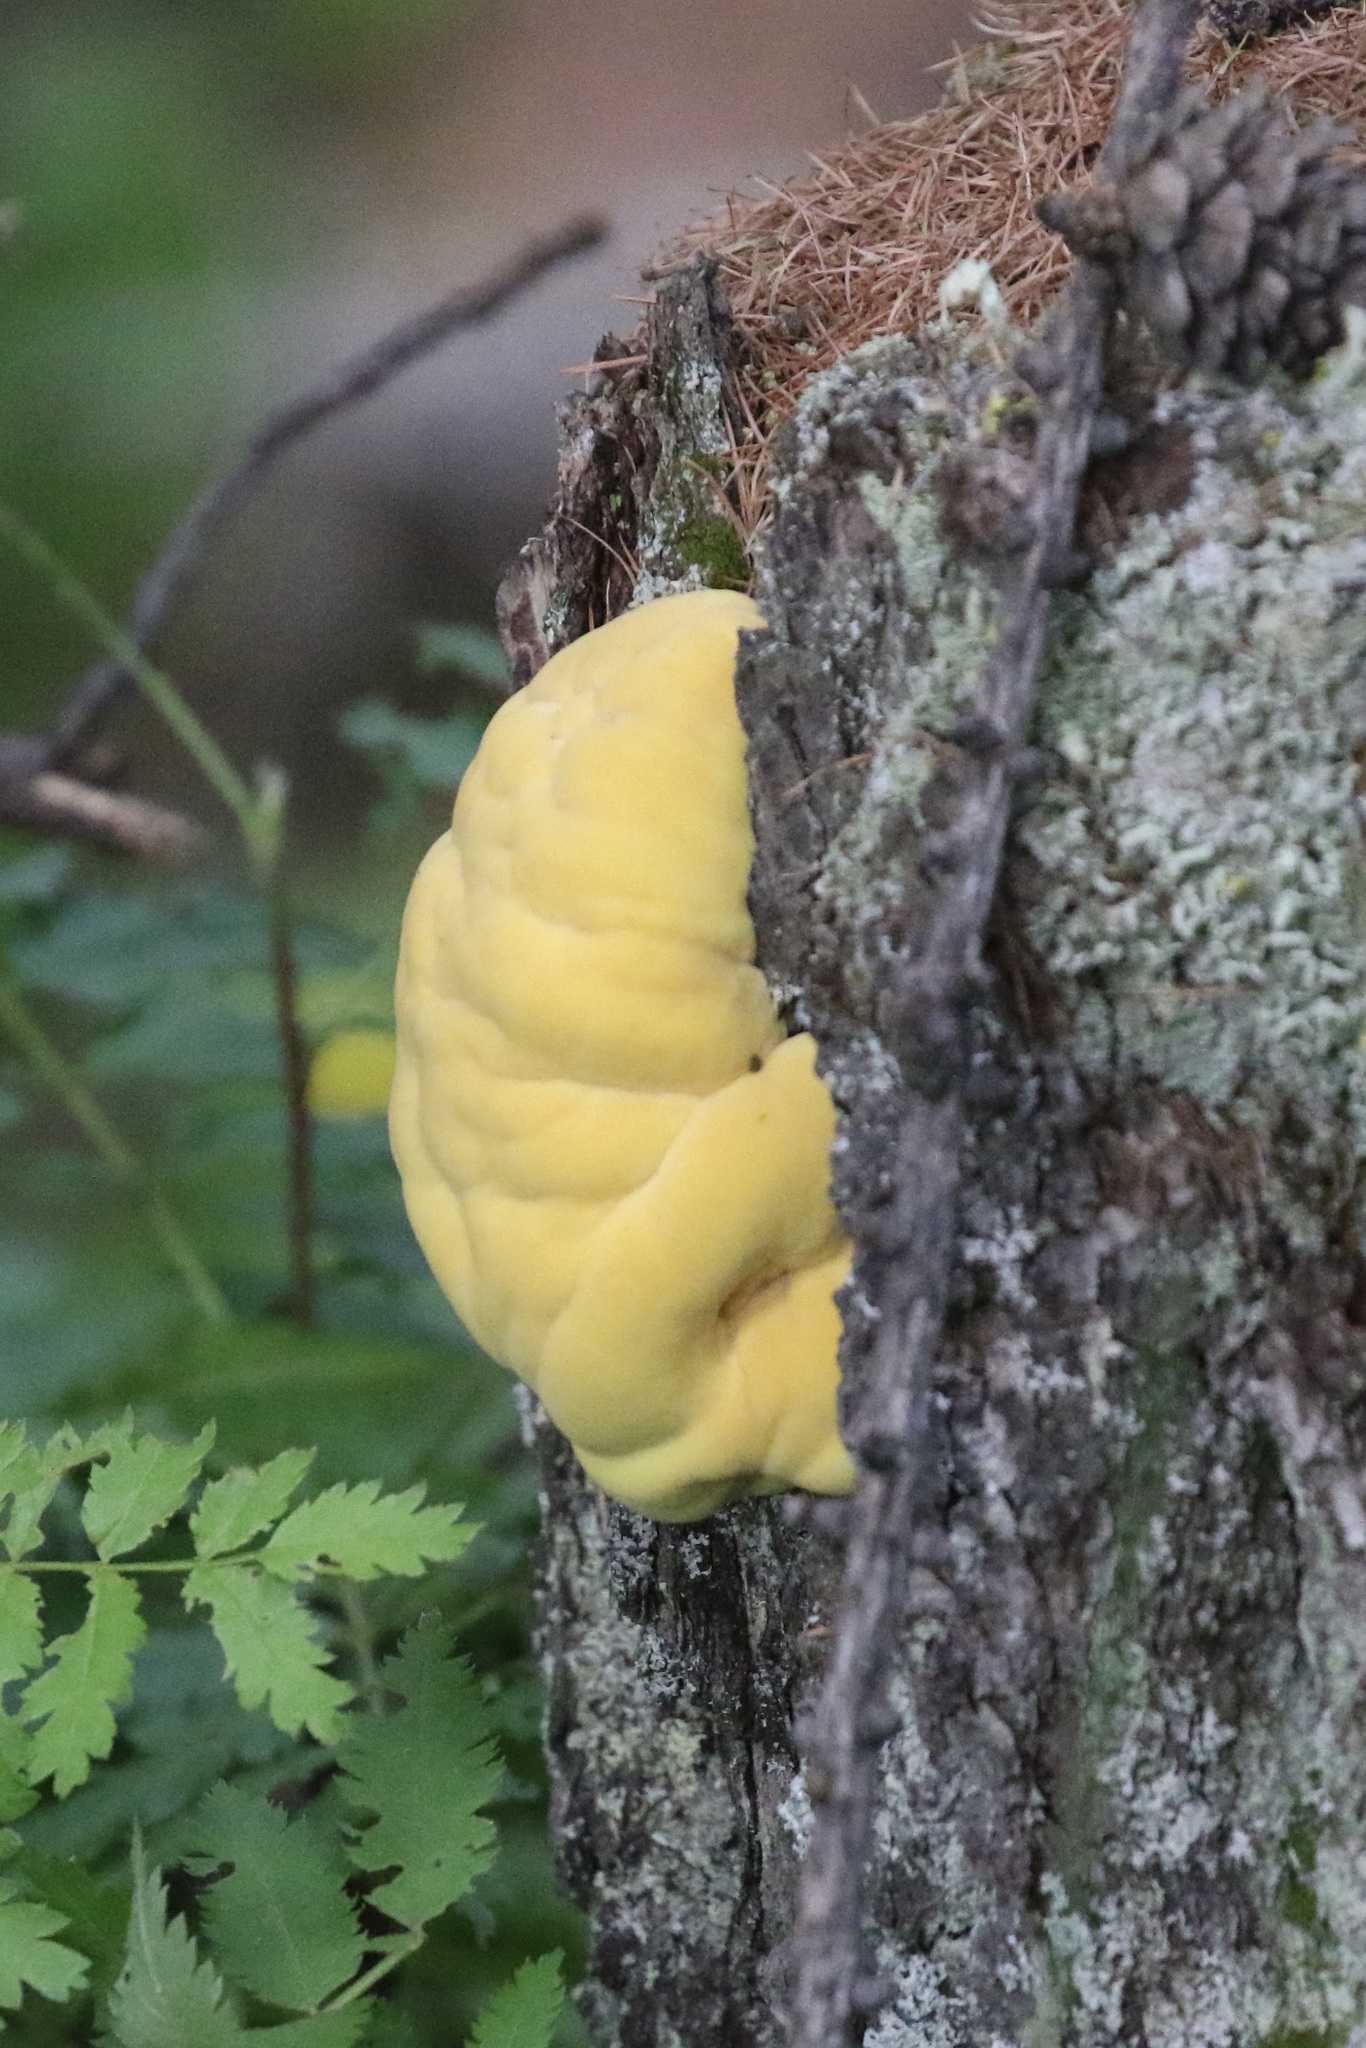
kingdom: Fungi
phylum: Basidiomycota
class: Agaricomycetes
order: Polyporales
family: Laetiporaceae
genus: Laetiporus
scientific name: Laetiporus sulphureus
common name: Chicken of the woods
